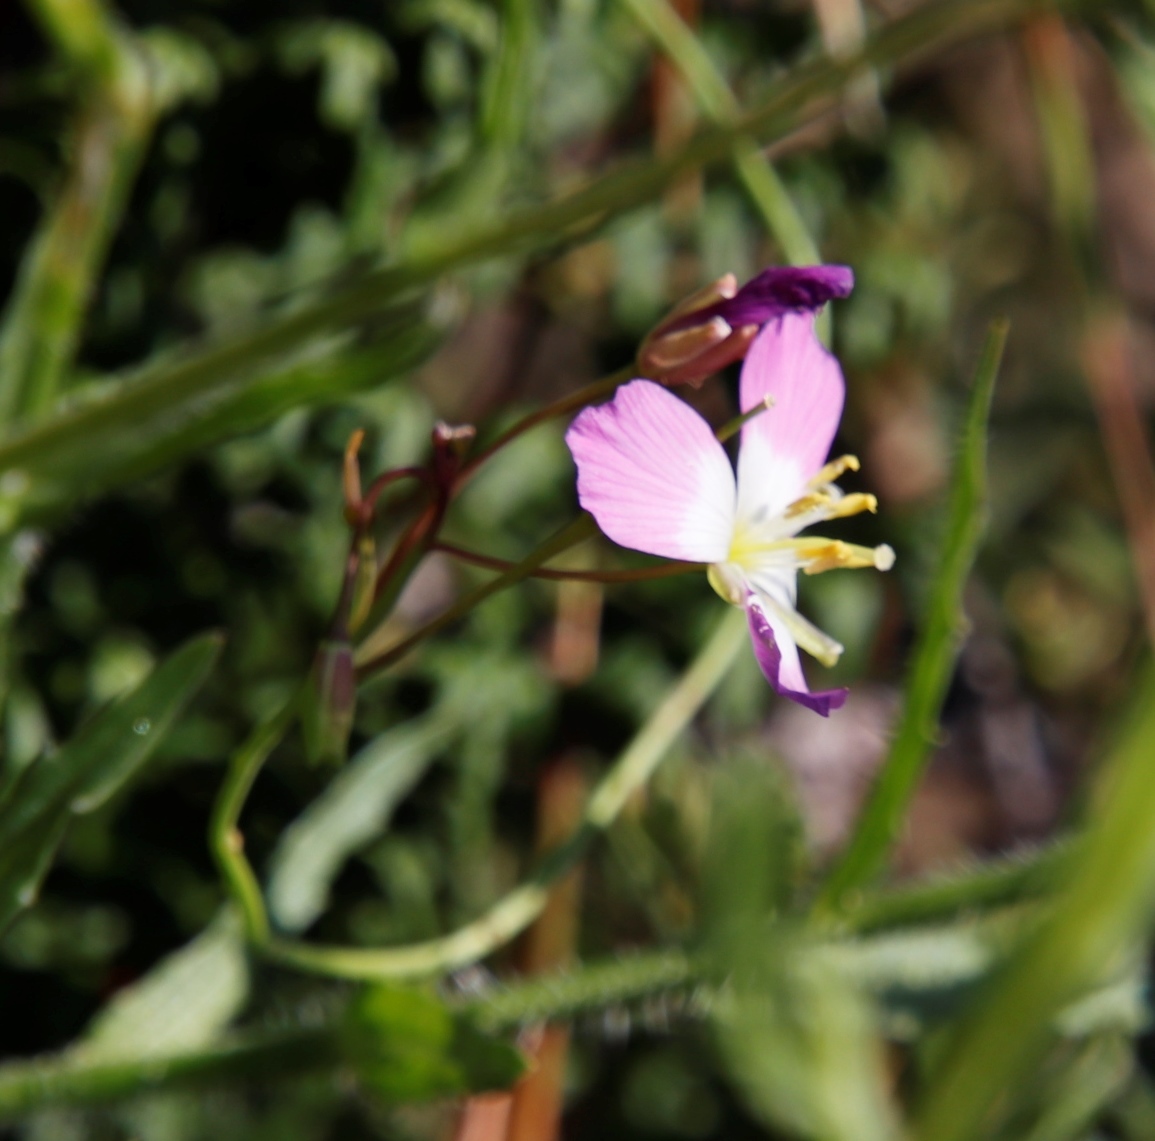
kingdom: Plantae
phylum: Tracheophyta
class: Magnoliopsida
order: Brassicales
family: Brassicaceae
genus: Heliophila
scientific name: Heliophila carnosa
